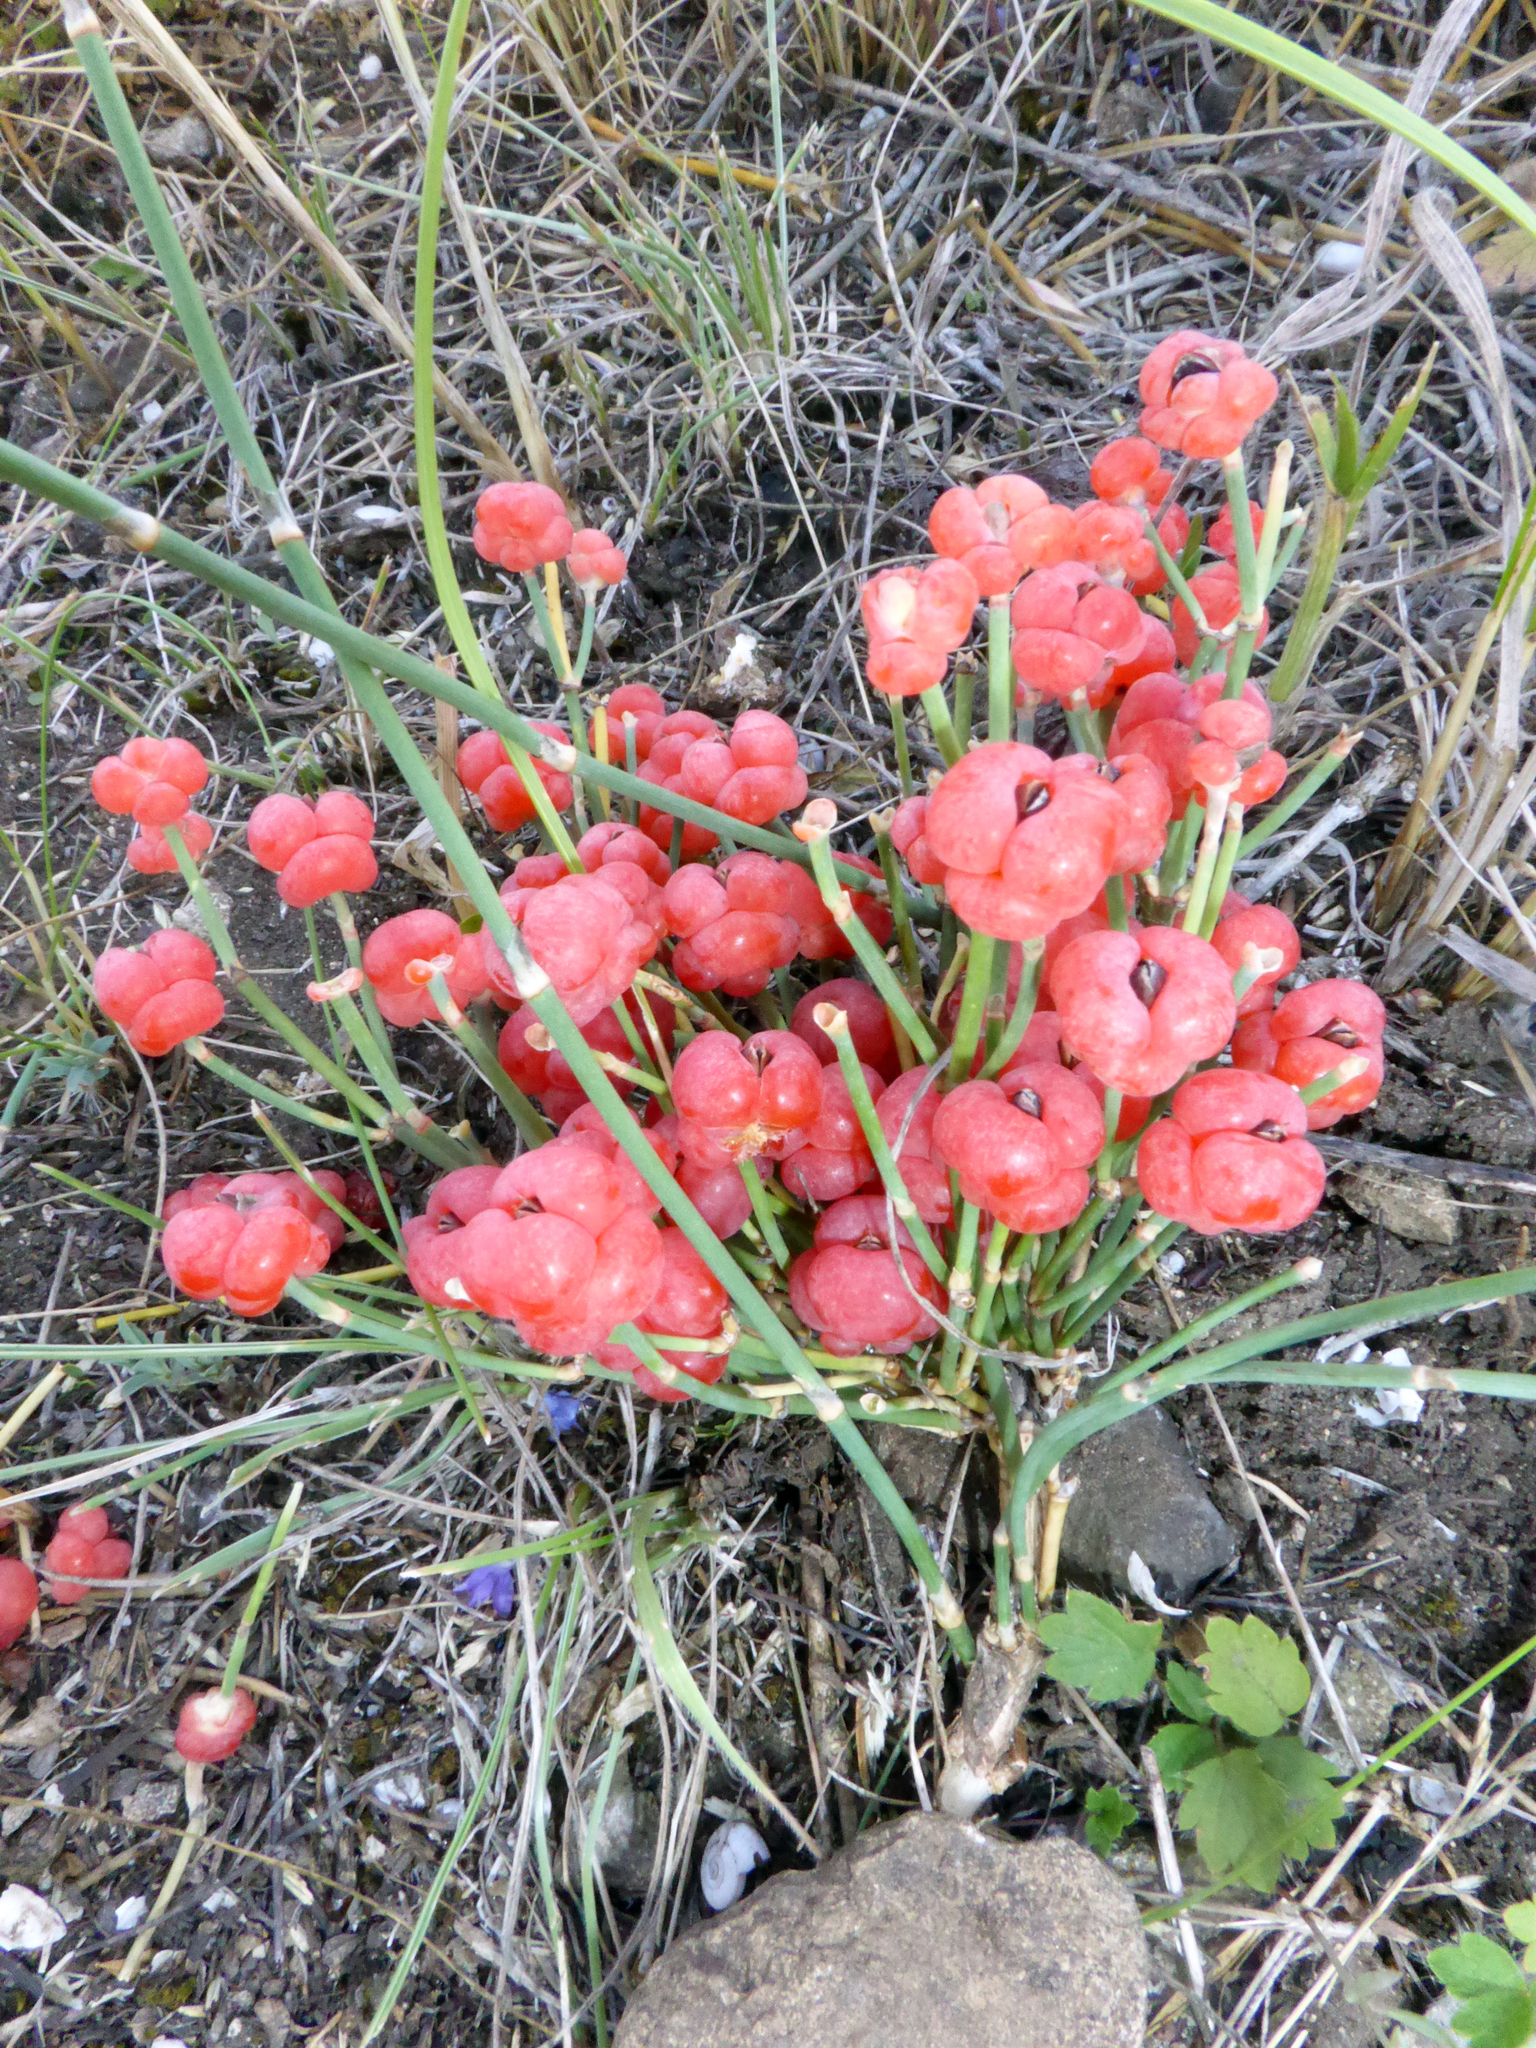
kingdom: Plantae
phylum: Tracheophyta
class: Gnetopsida
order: Ephedrales
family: Ephedraceae
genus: Ephedra
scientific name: Ephedra distachya
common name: Sea grape
